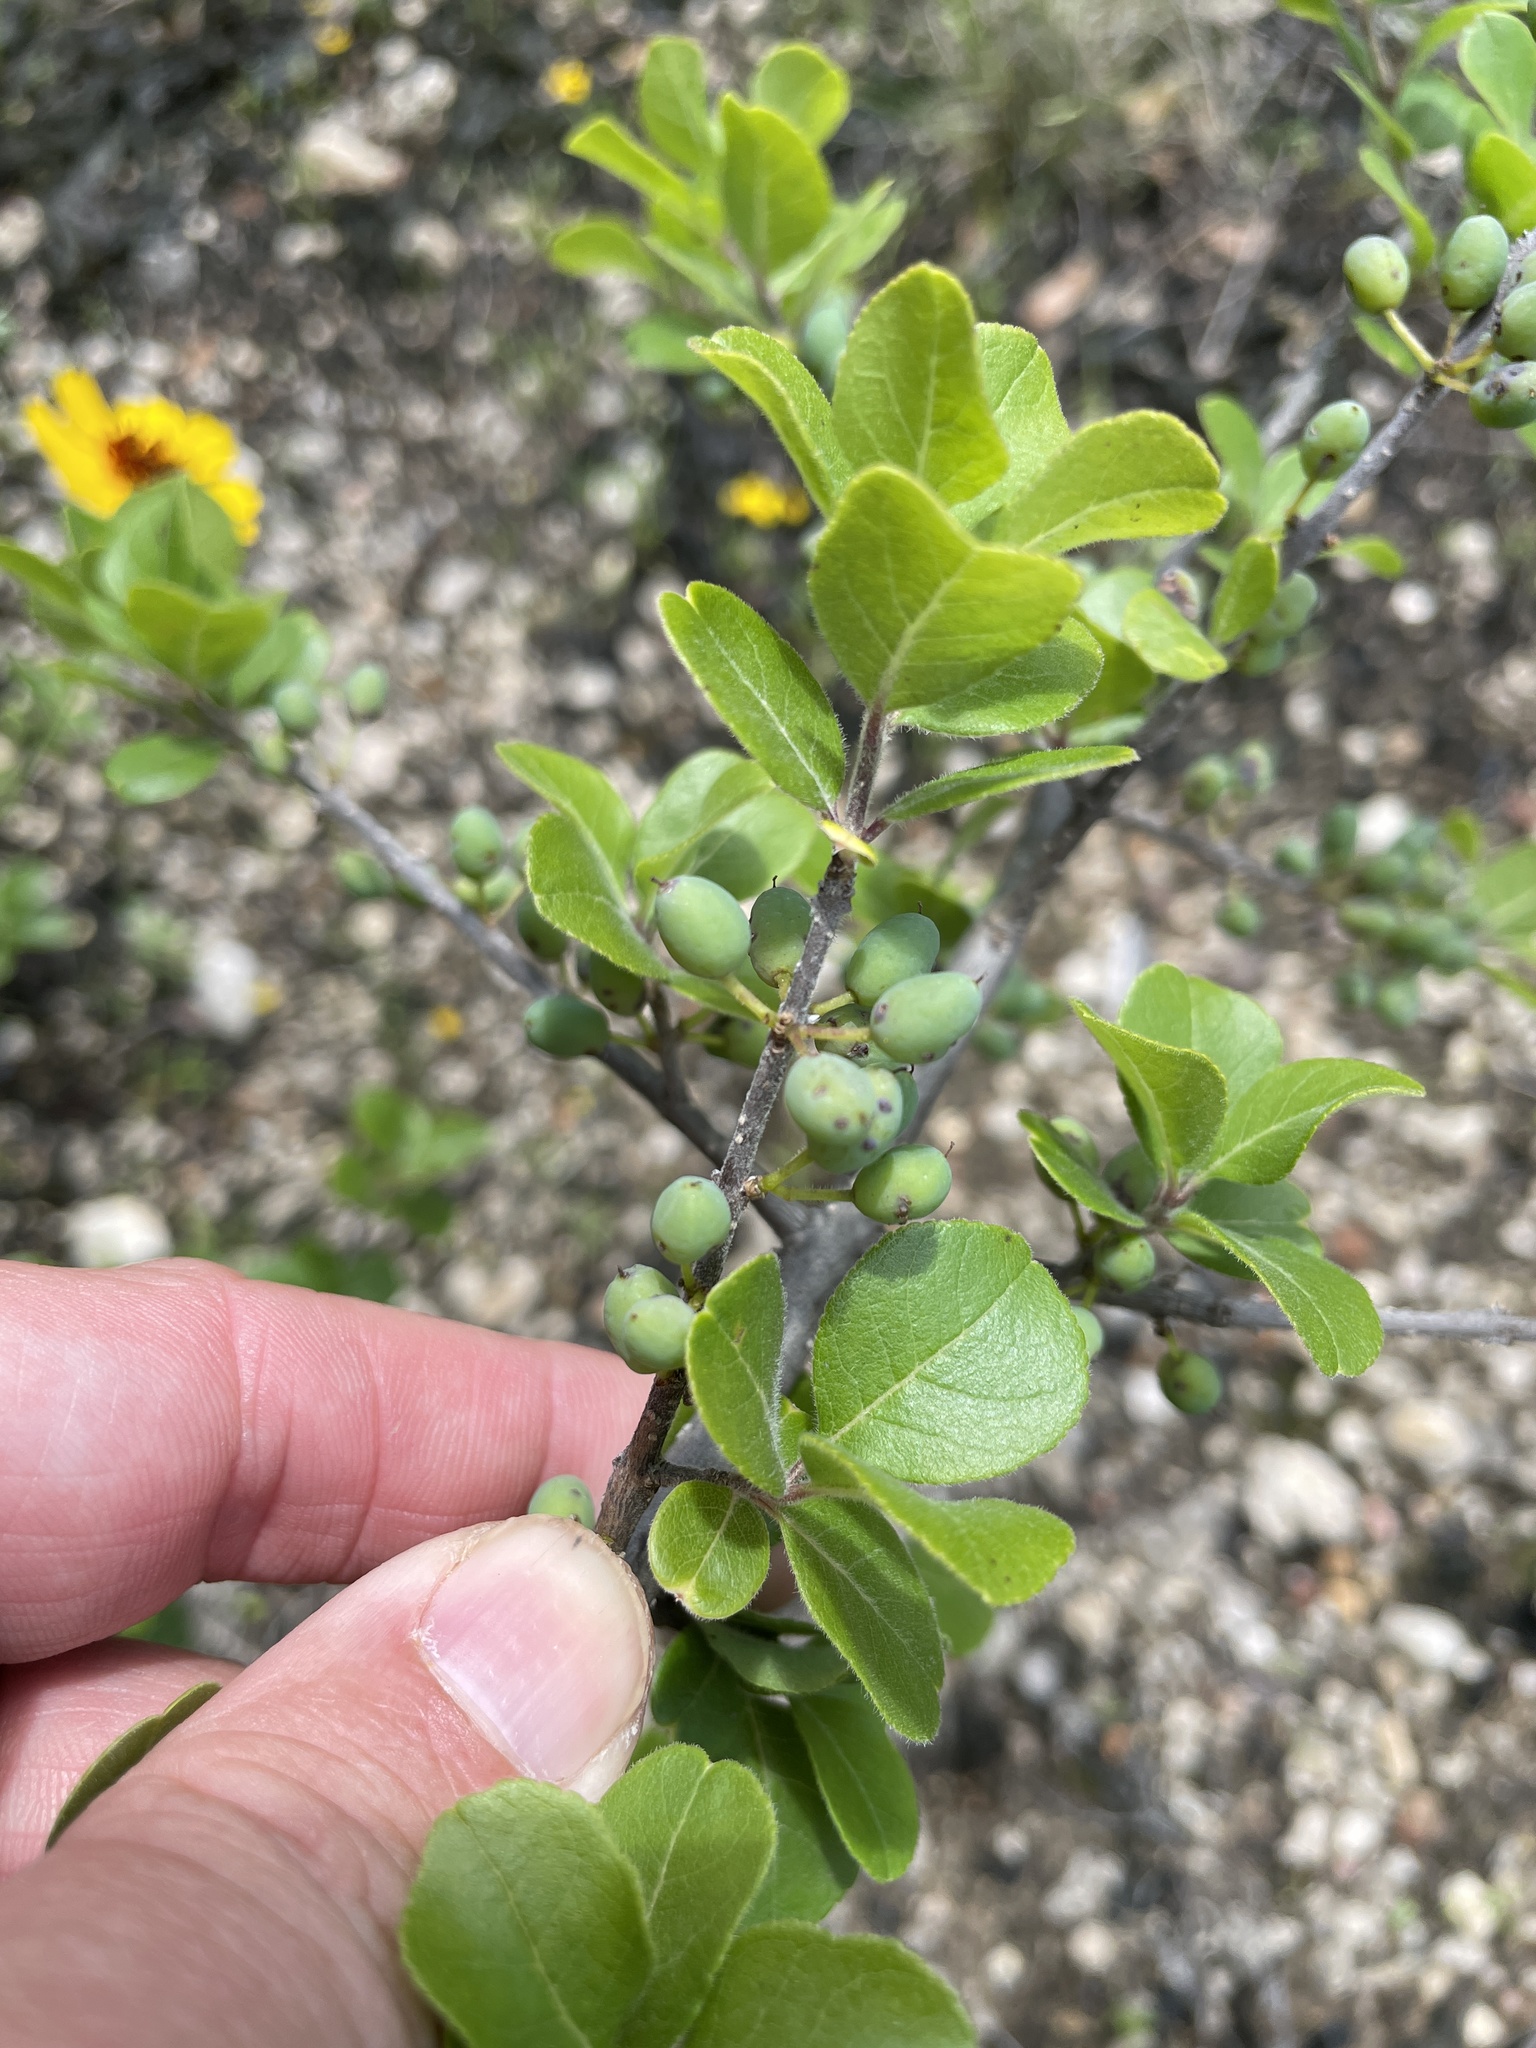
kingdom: Plantae
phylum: Tracheophyta
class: Magnoliopsida
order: Lamiales
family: Oleaceae
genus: Forestiera
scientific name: Forestiera pubescens
